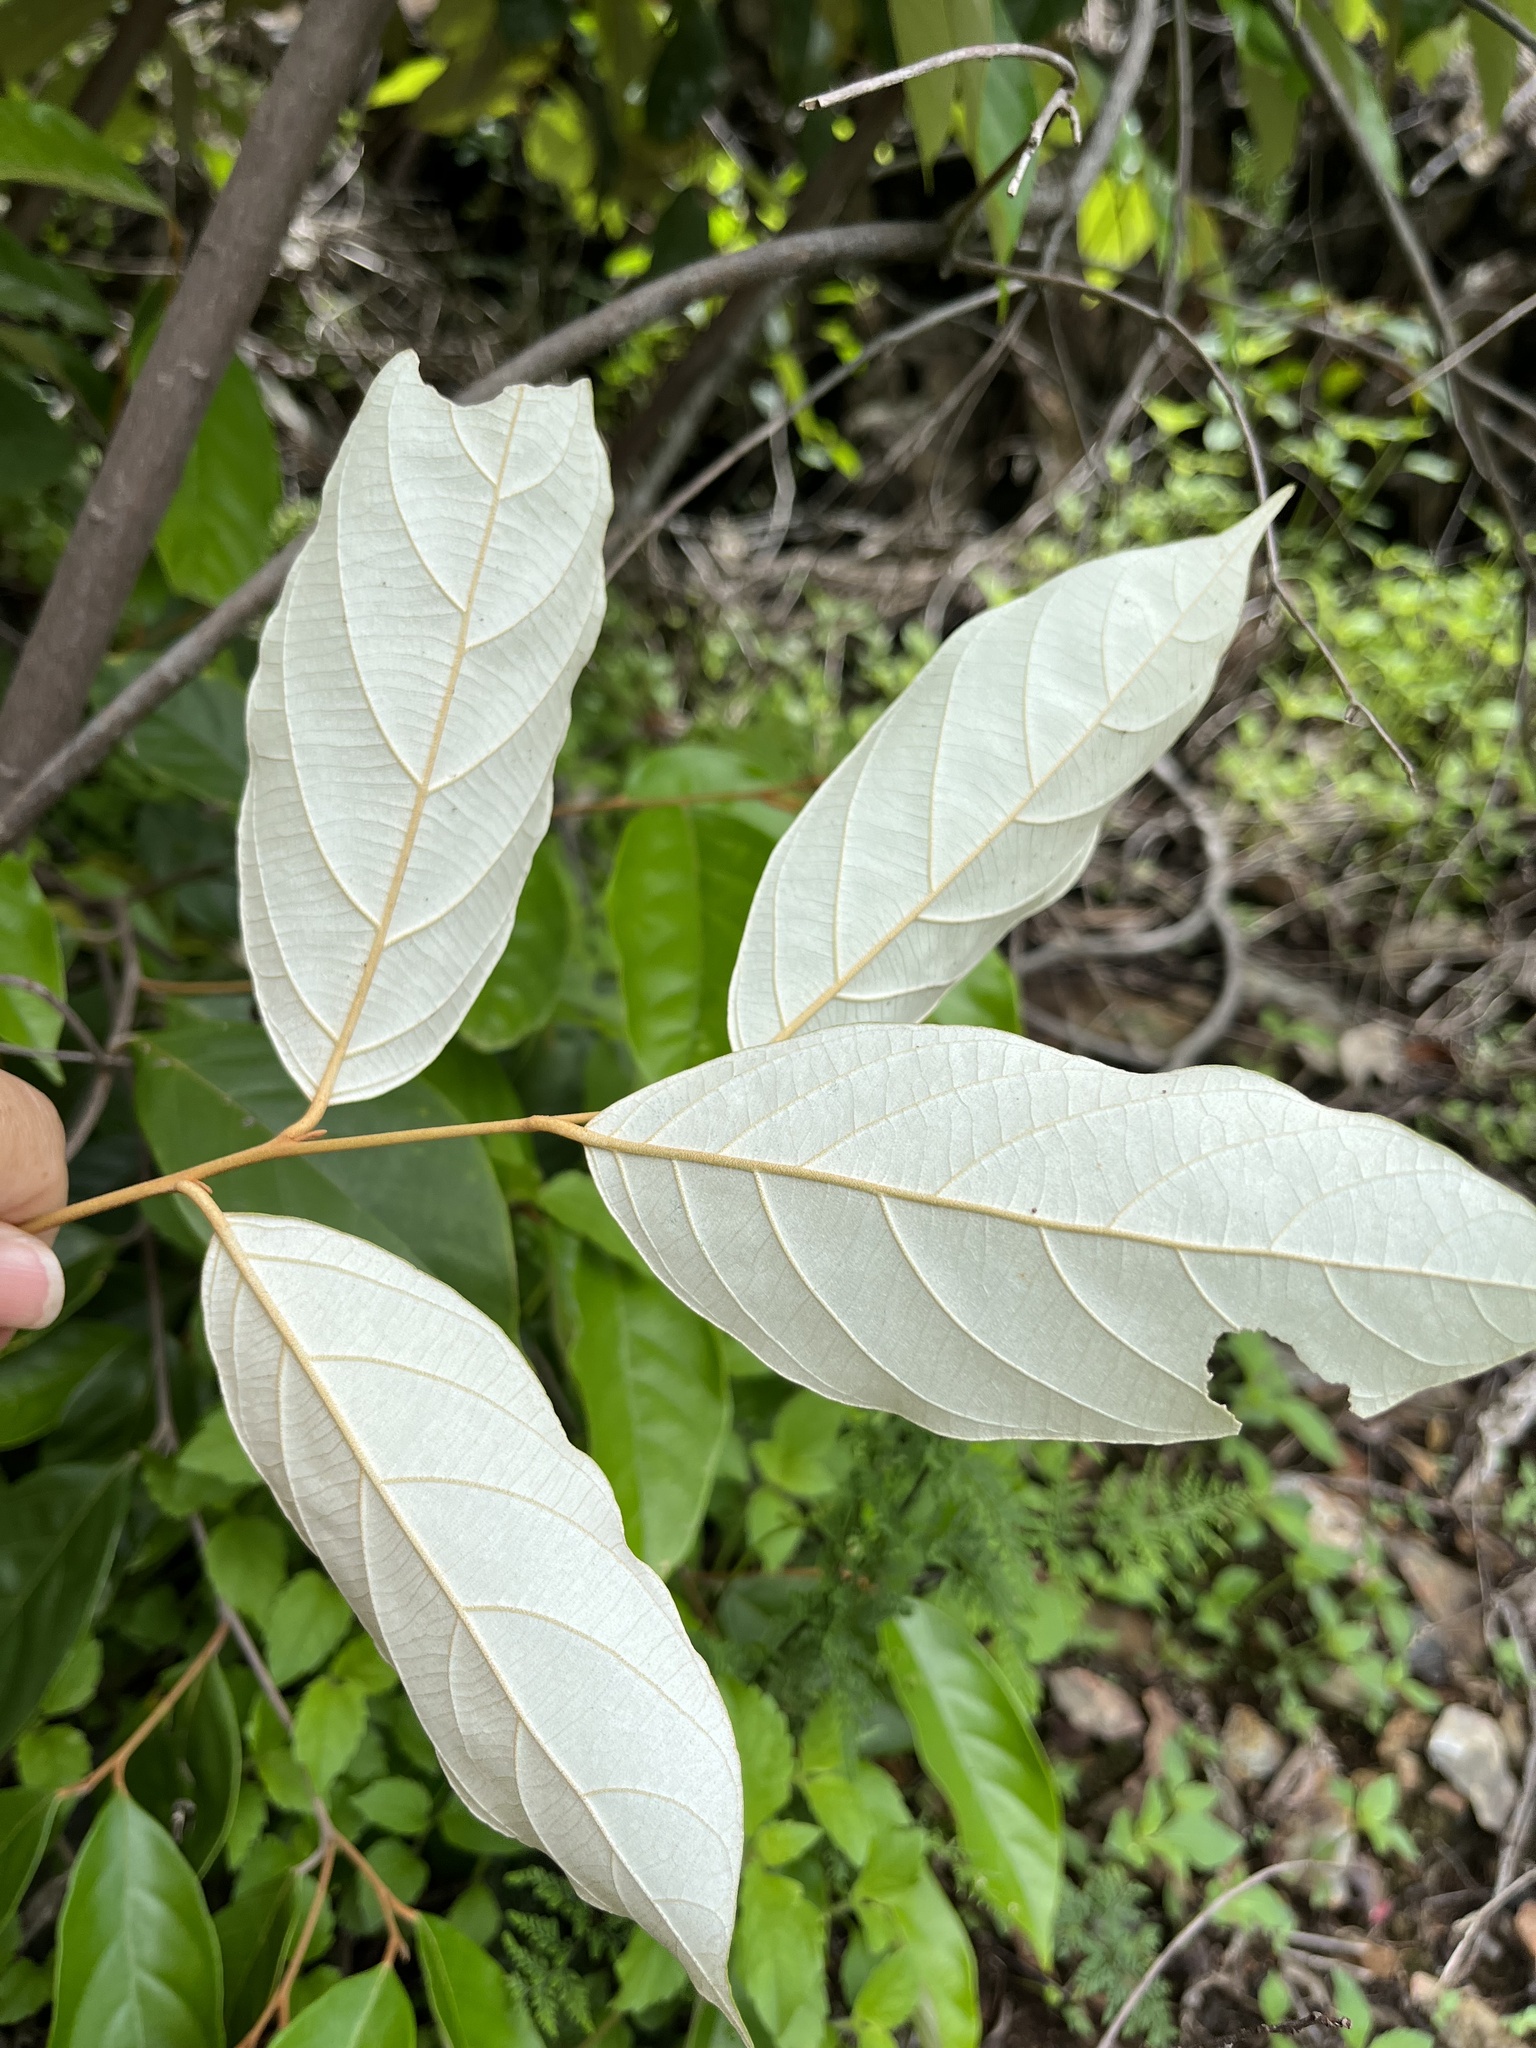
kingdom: Plantae
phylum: Tracheophyta
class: Magnoliopsida
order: Ericales
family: Styracaceae
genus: Styrax
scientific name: Styrax suberifolius
